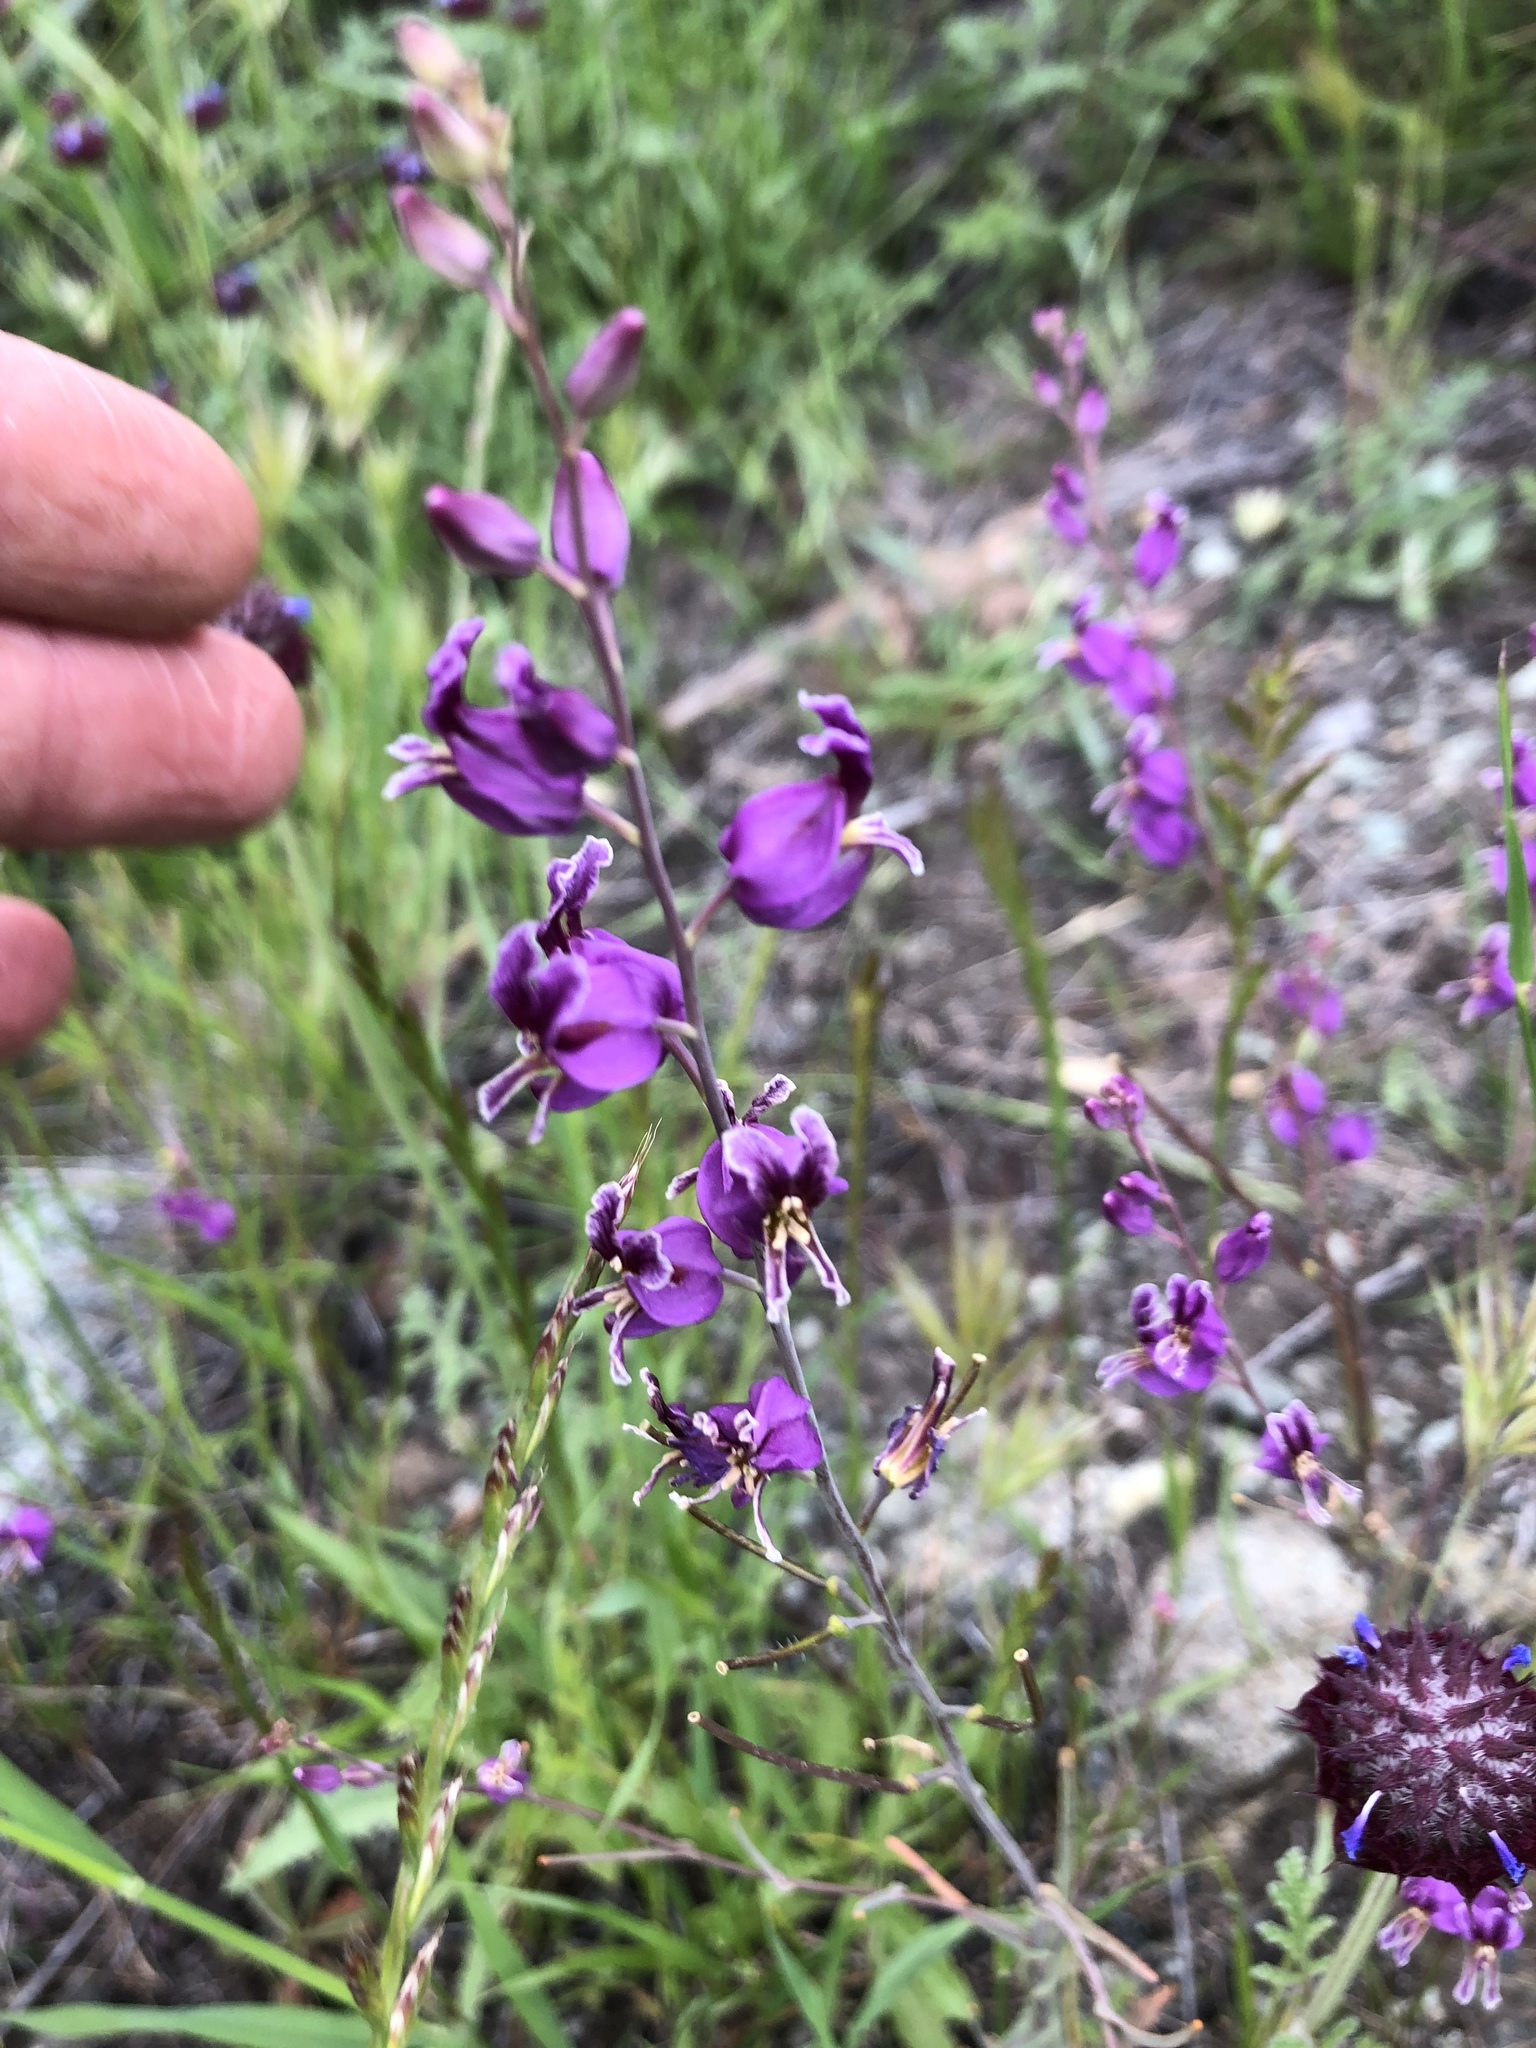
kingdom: Plantae
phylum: Tracheophyta
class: Magnoliopsida
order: Brassicales
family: Brassicaceae
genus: Streptanthus
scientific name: Streptanthus glandulosus
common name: Jewel-flower
